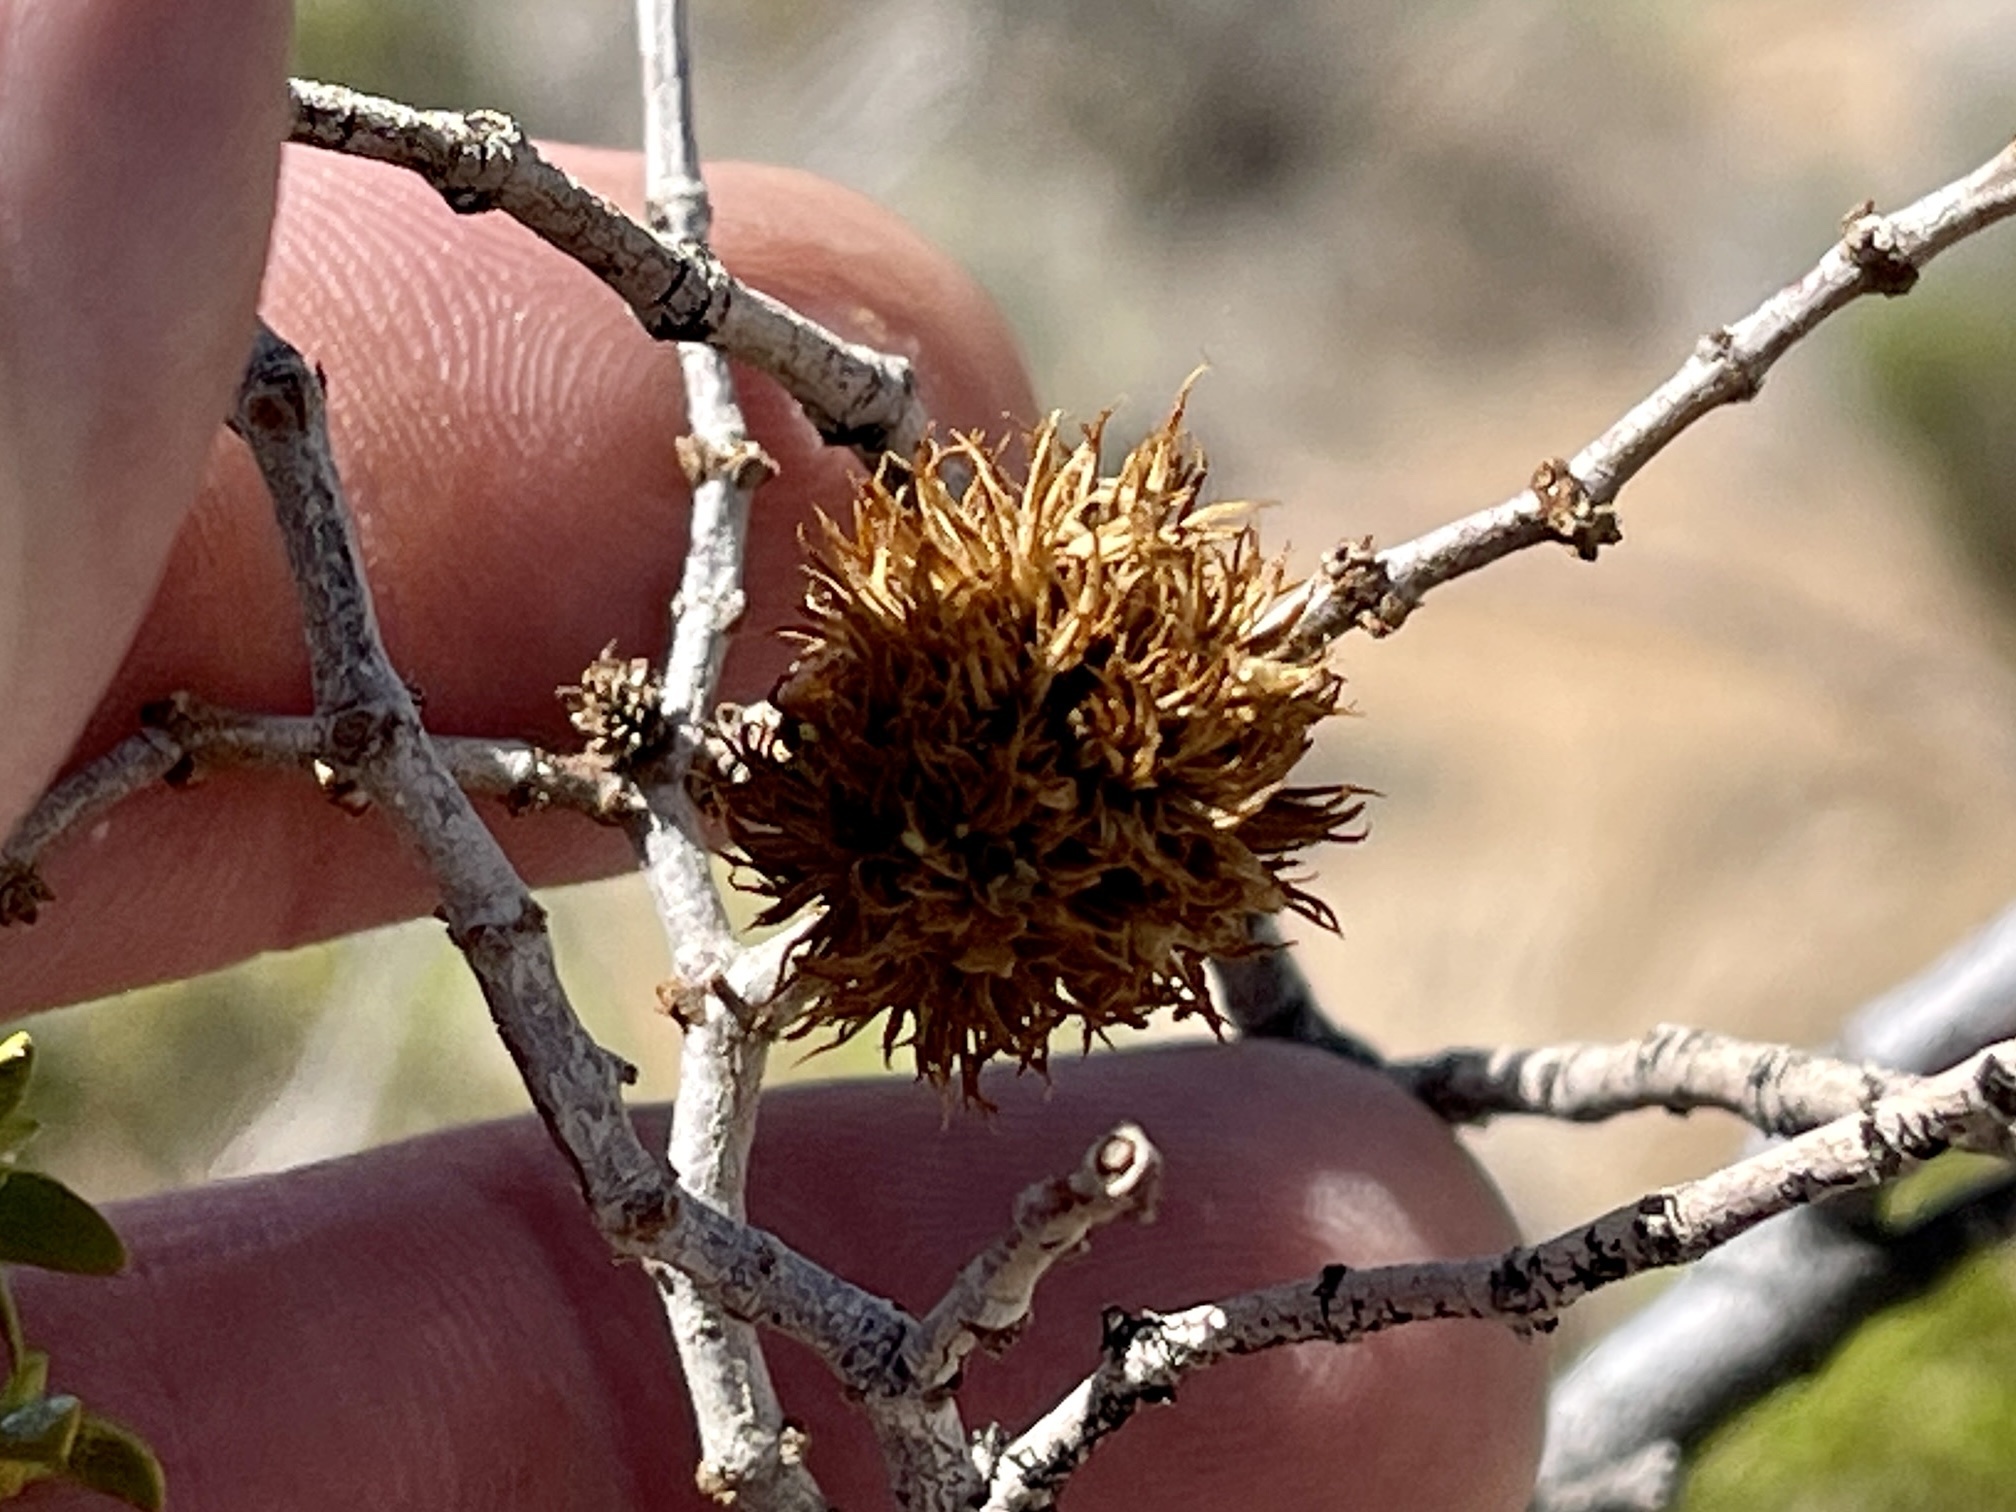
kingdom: Animalia
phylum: Arthropoda
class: Insecta
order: Diptera
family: Cecidomyiidae
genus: Asphondylia
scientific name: Asphondylia auripila
